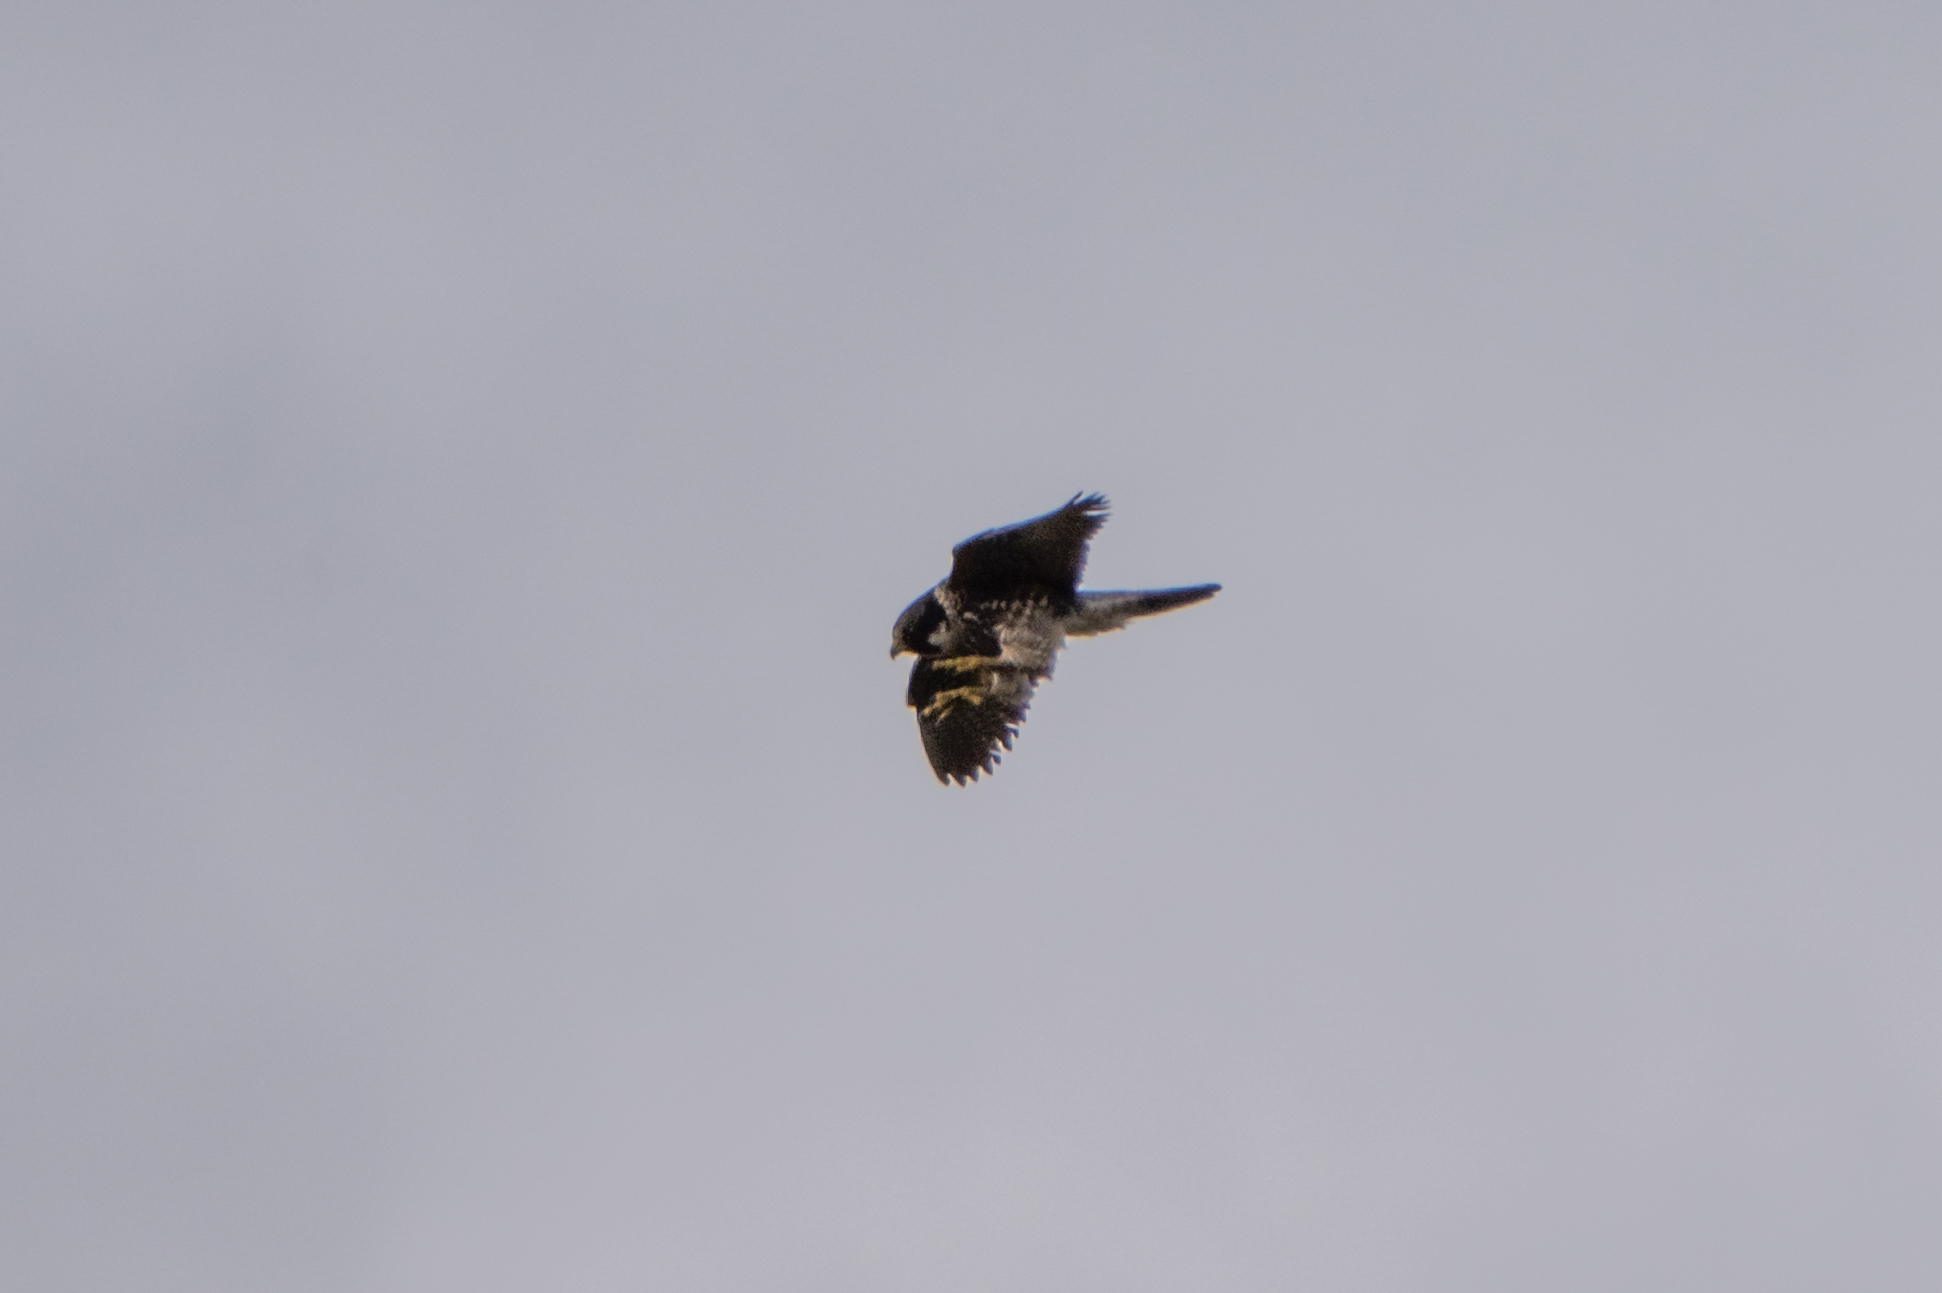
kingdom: Animalia
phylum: Chordata
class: Aves
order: Falconiformes
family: Falconidae
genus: Falco
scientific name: Falco peregrinus
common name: Peregrine falcon
